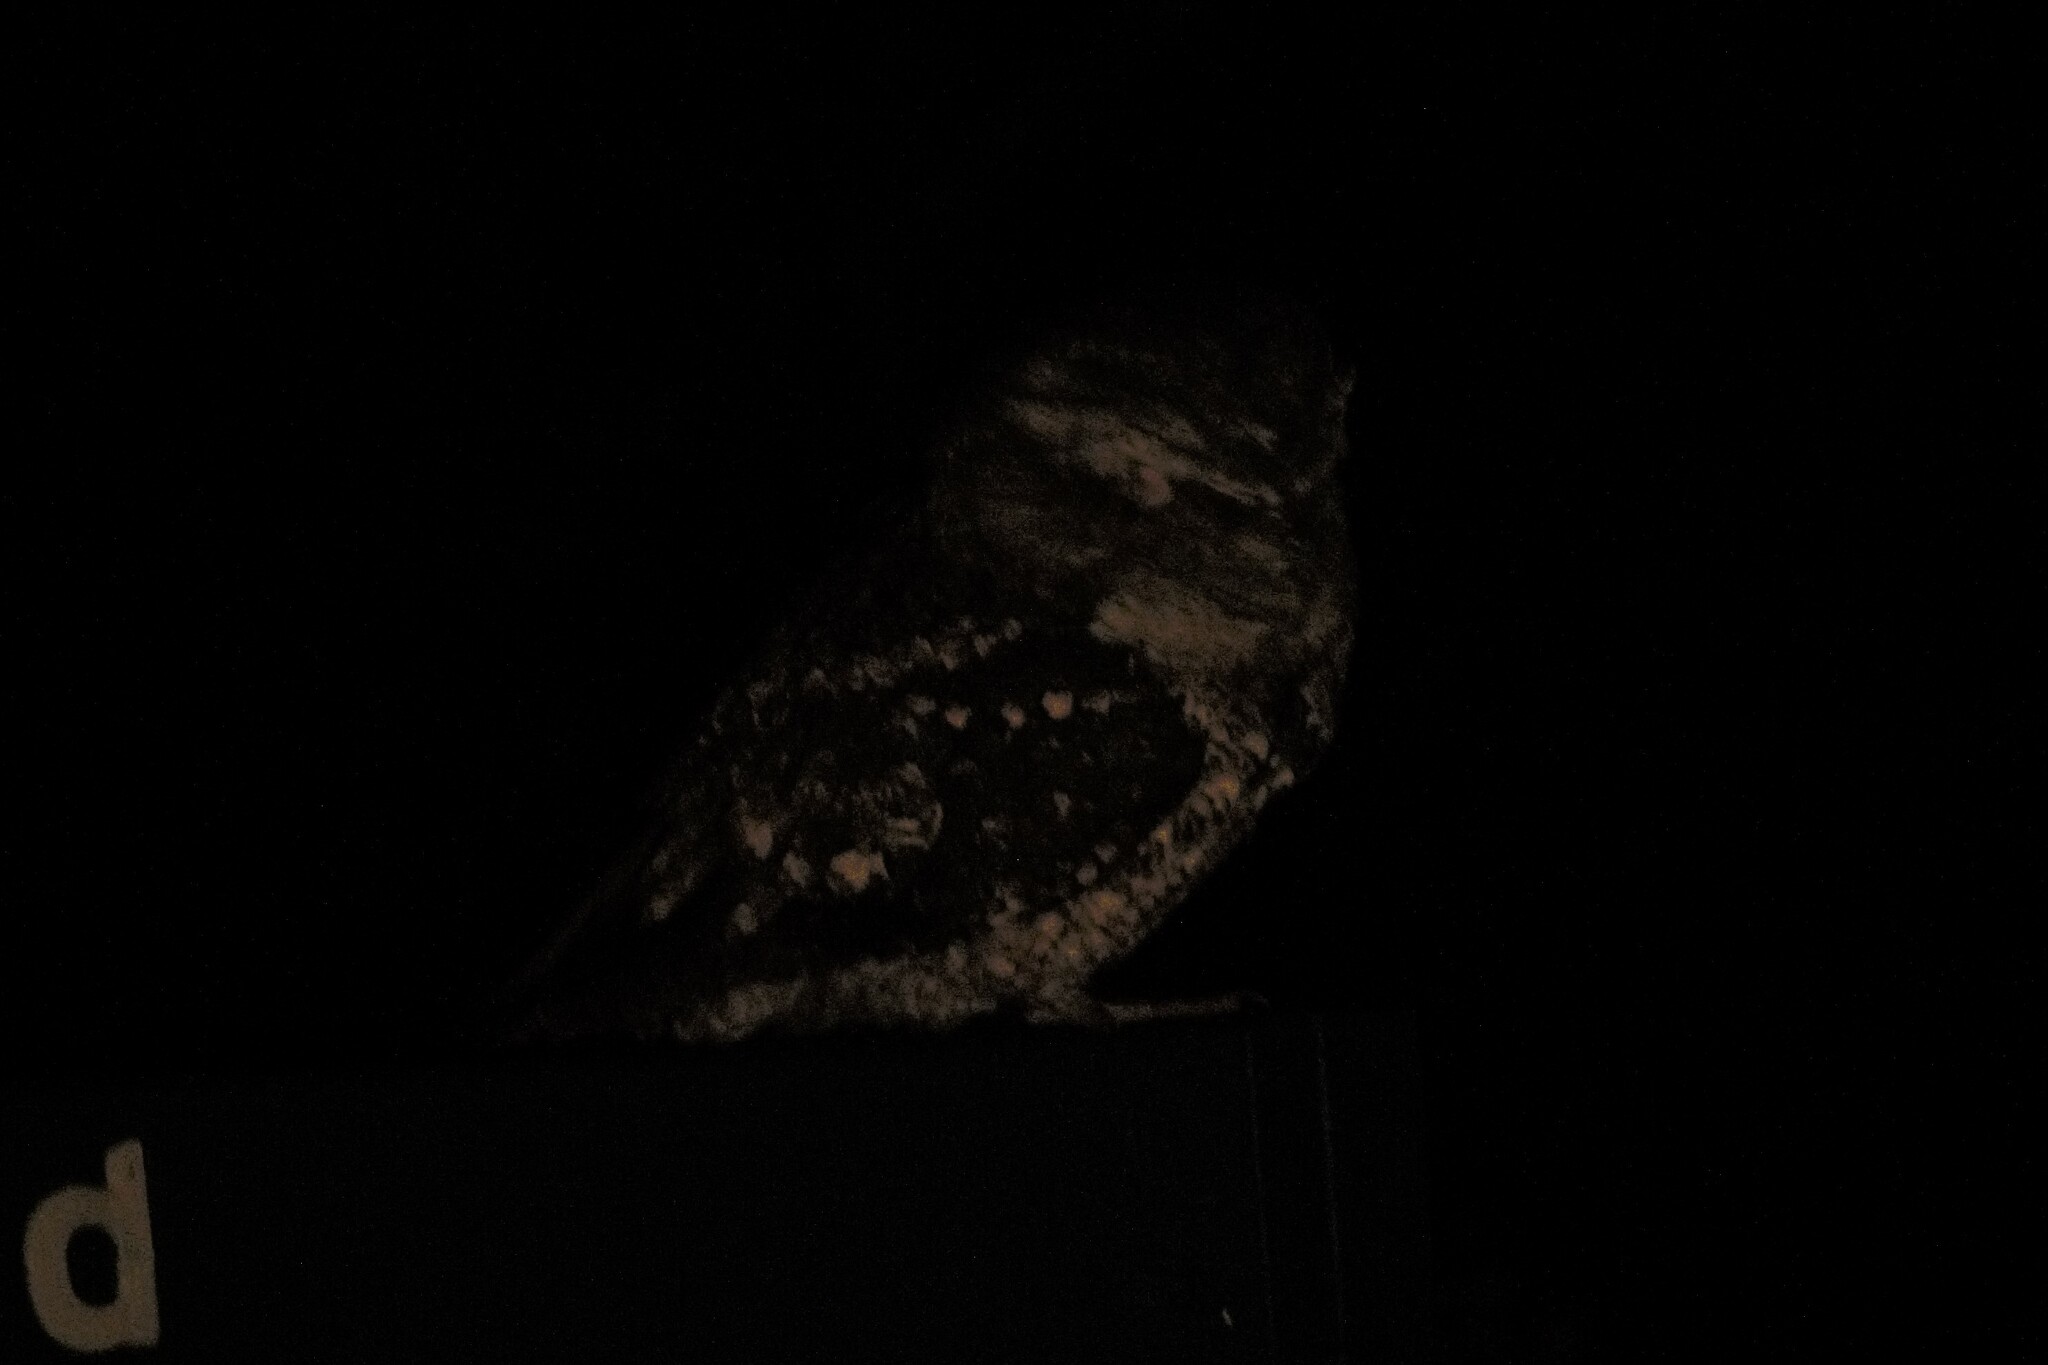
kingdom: Animalia
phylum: Chordata
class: Aves
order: Caprimulgiformes
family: Podargidae
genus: Podargus
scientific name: Podargus papuensis
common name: Papuan frogmouth
